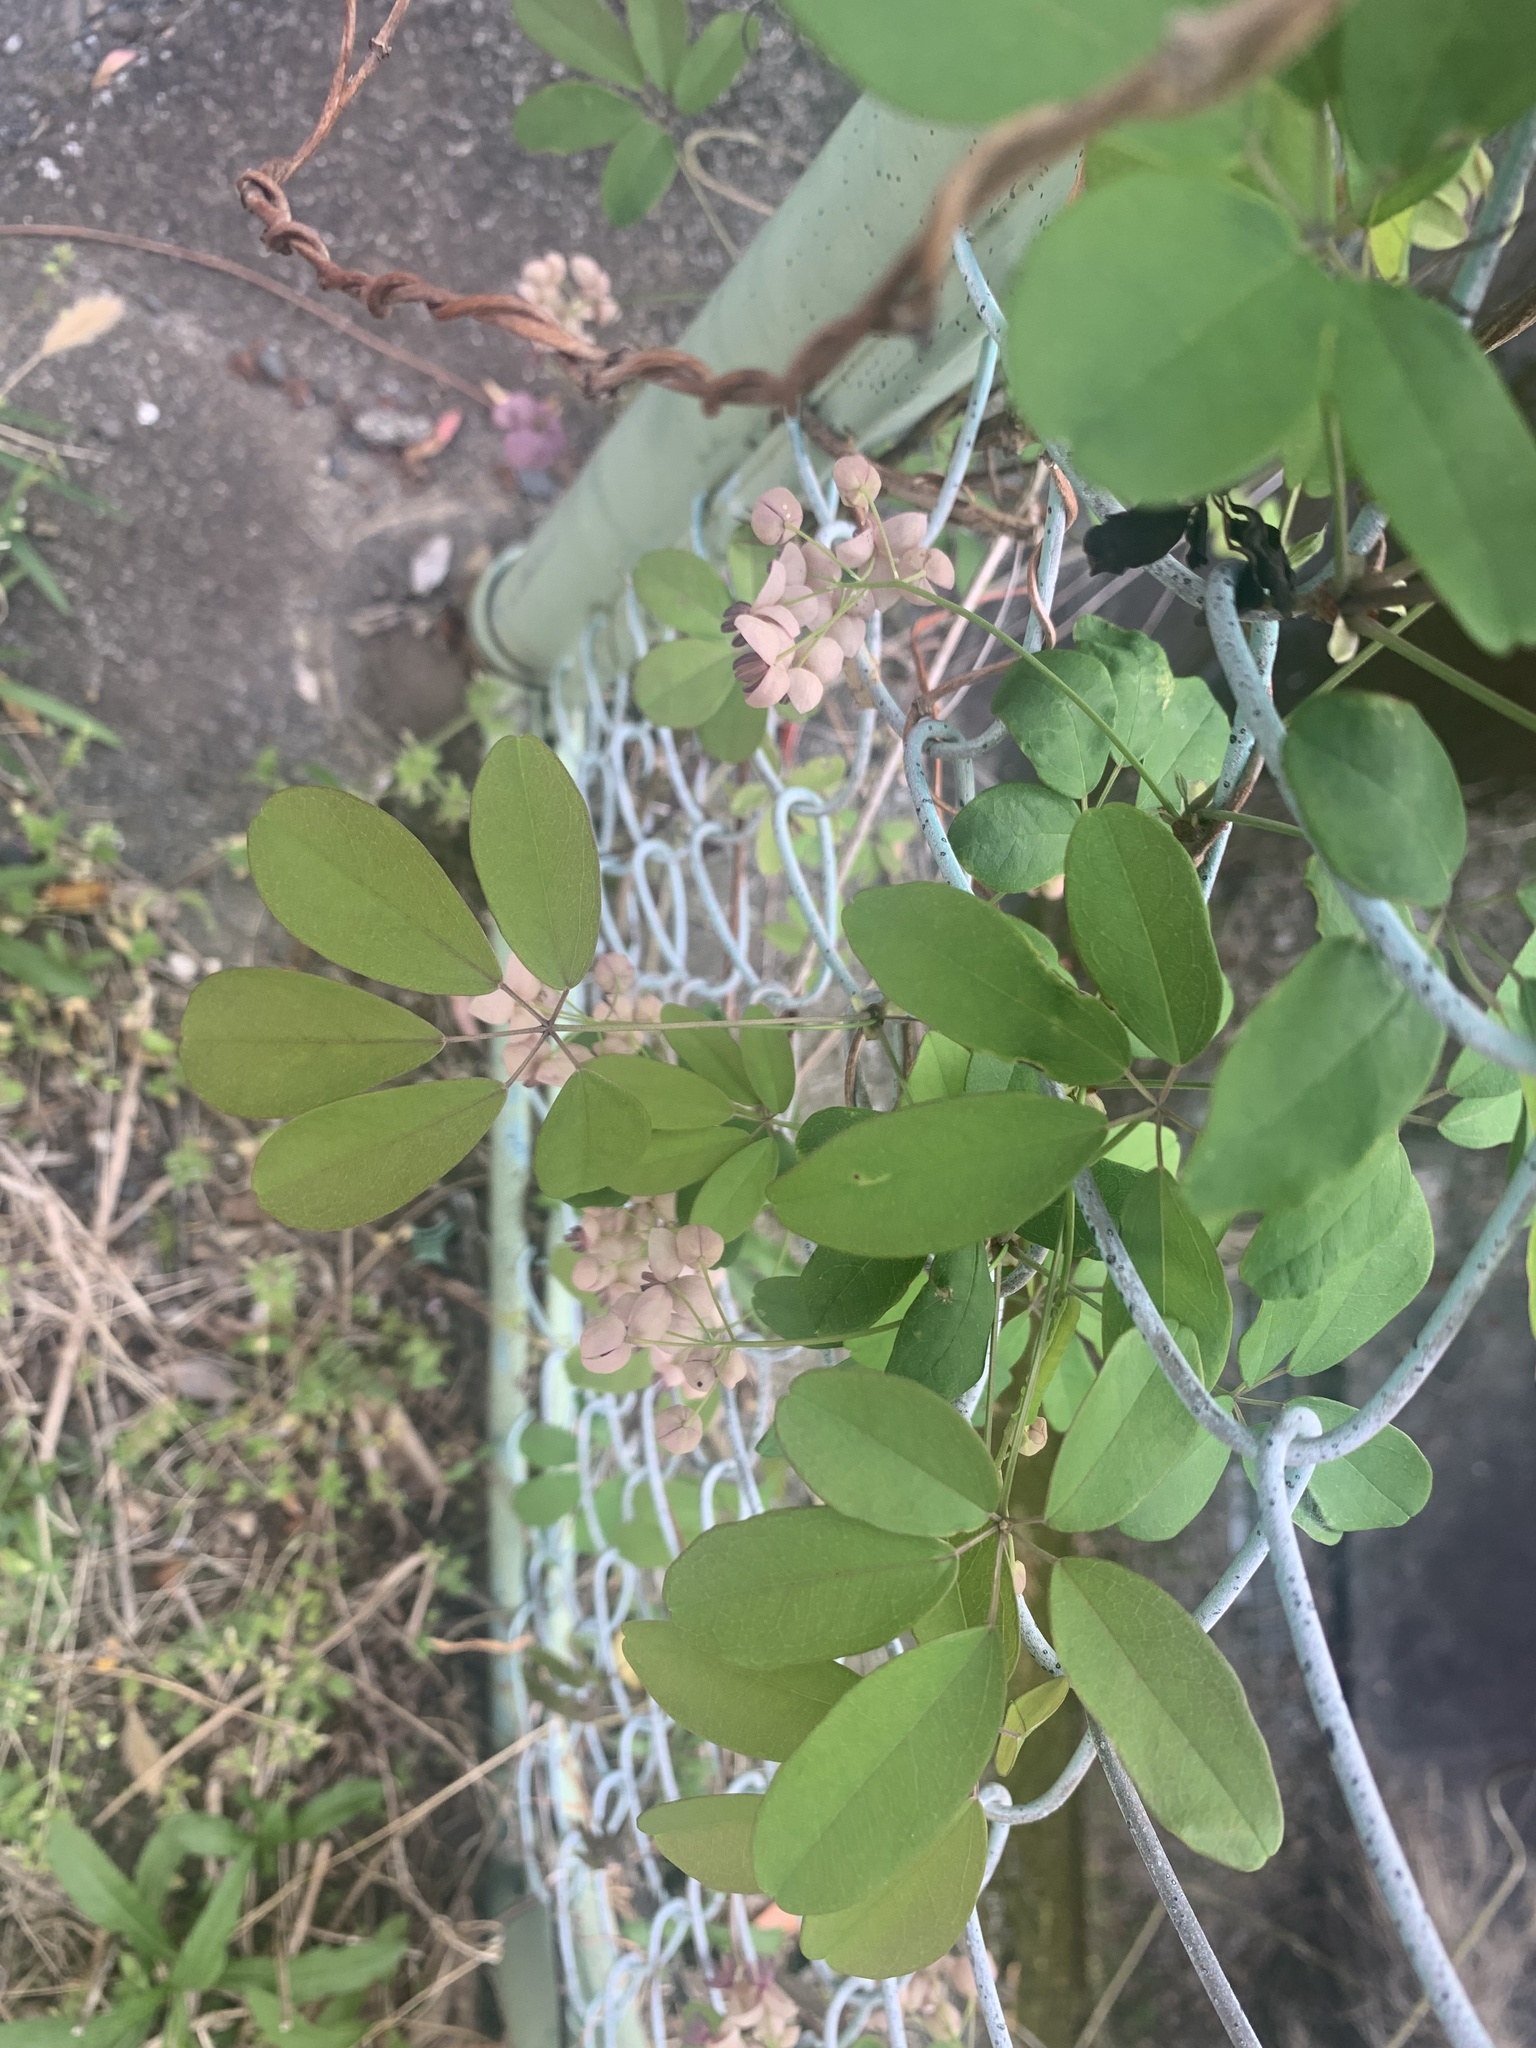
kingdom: Plantae
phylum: Tracheophyta
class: Magnoliopsida
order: Ranunculales
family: Lardizabalaceae
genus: Akebia
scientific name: Akebia quinata
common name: Five-leaf akebia
